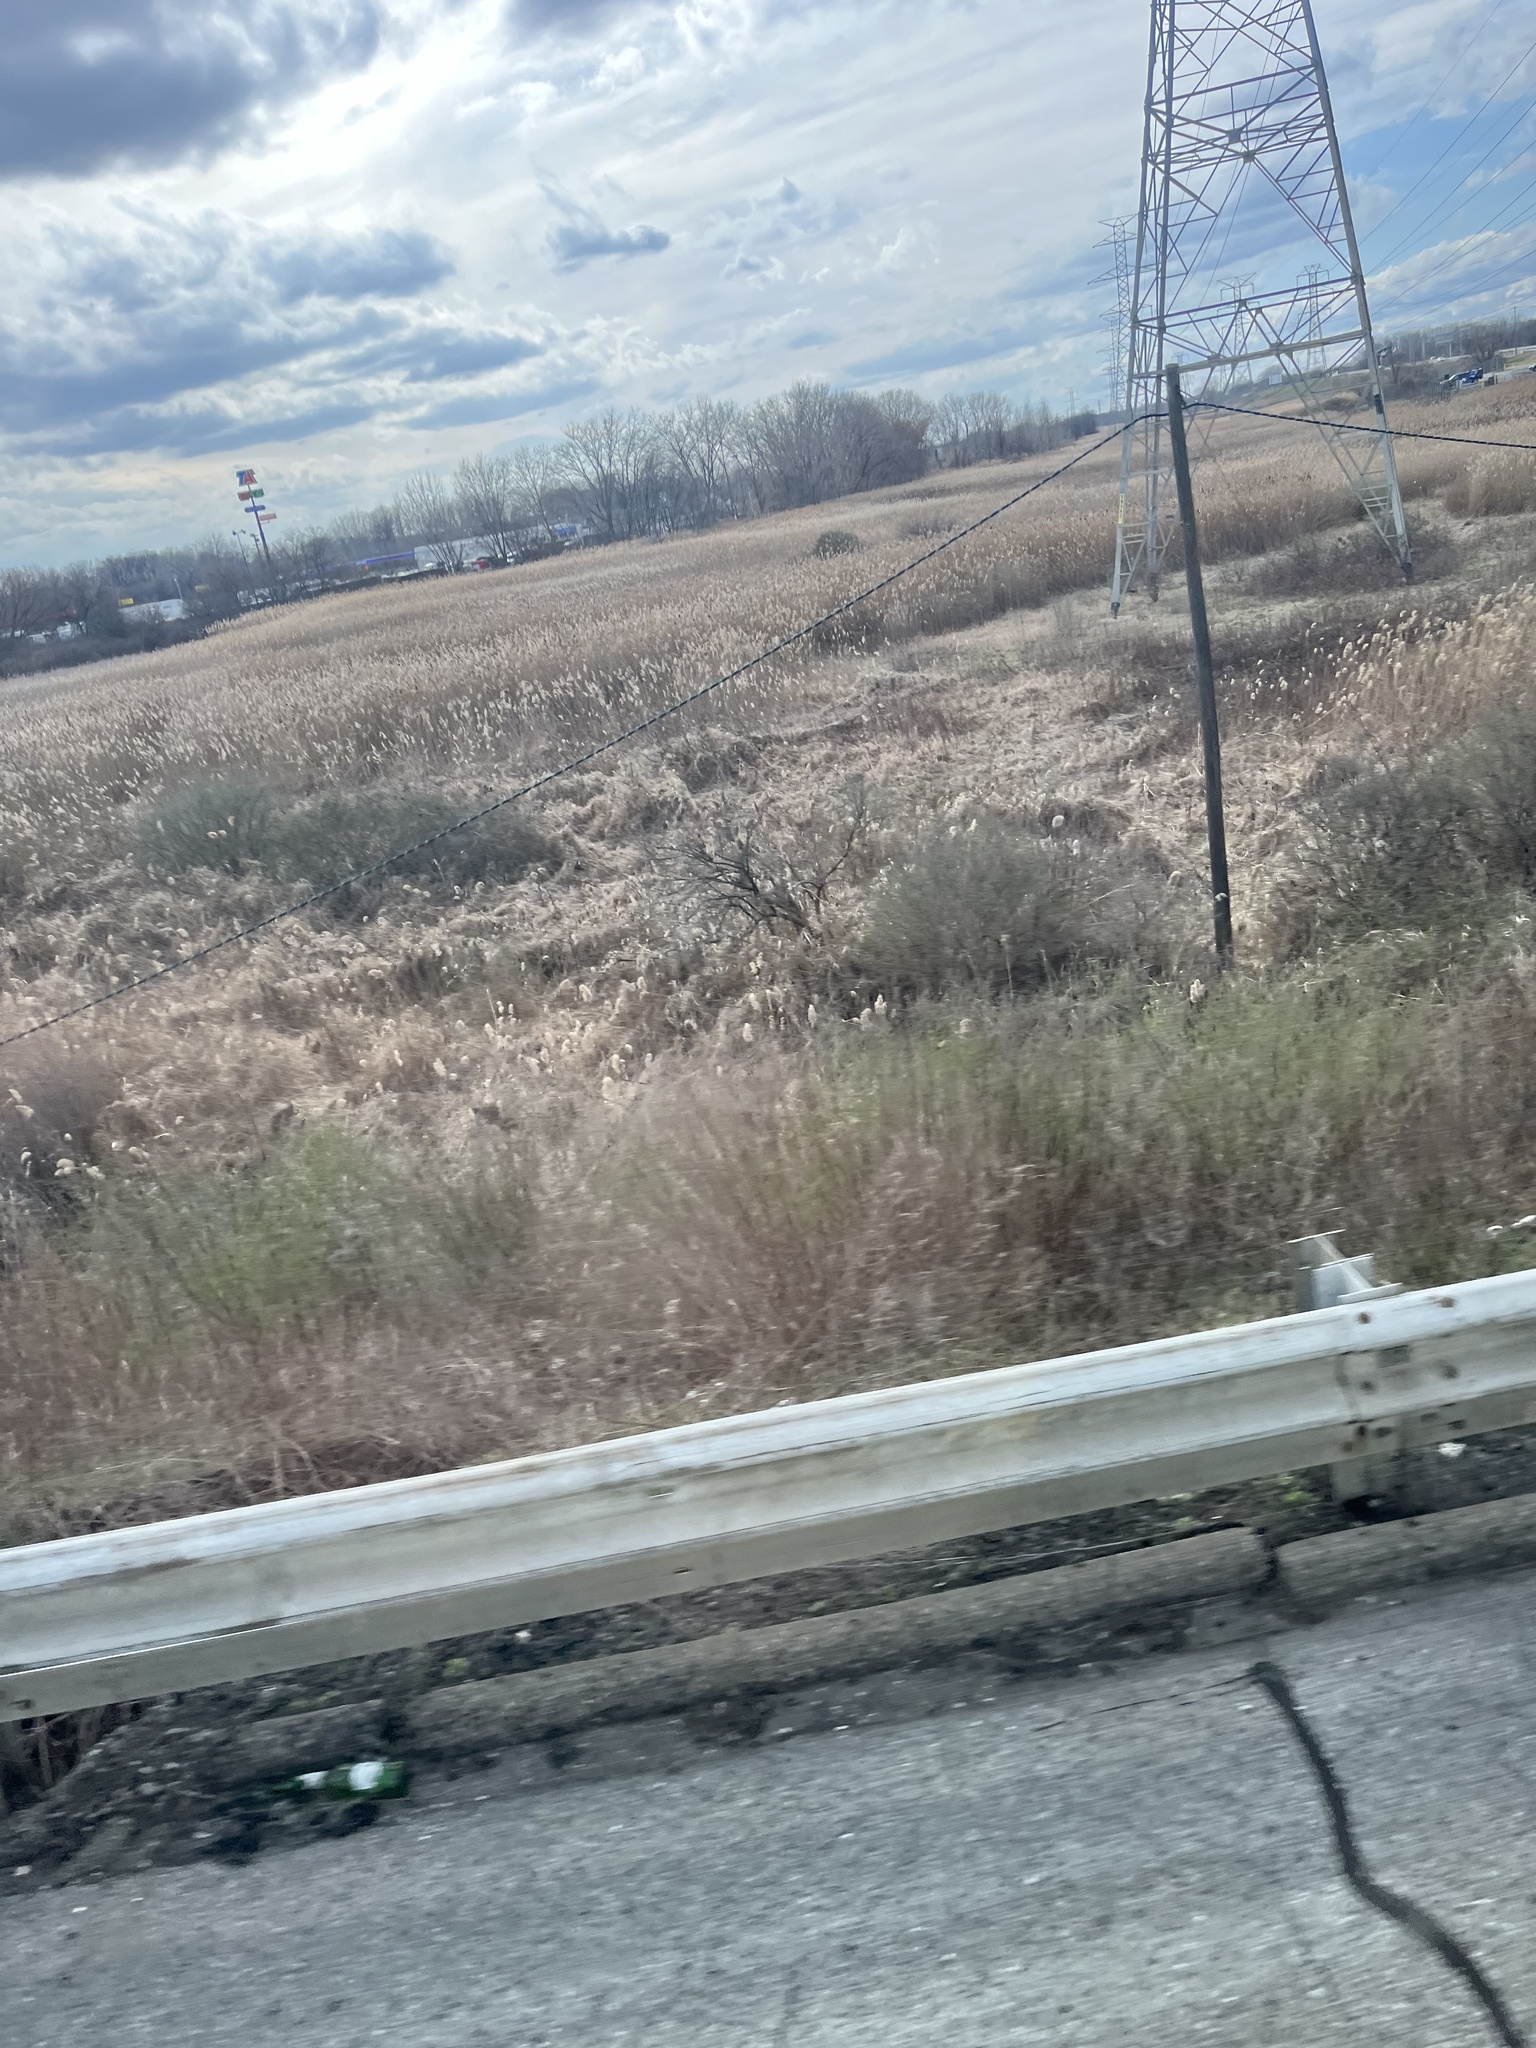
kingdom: Plantae
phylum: Tracheophyta
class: Liliopsida
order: Poales
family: Poaceae
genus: Phragmites
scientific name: Phragmites australis
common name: Common reed
